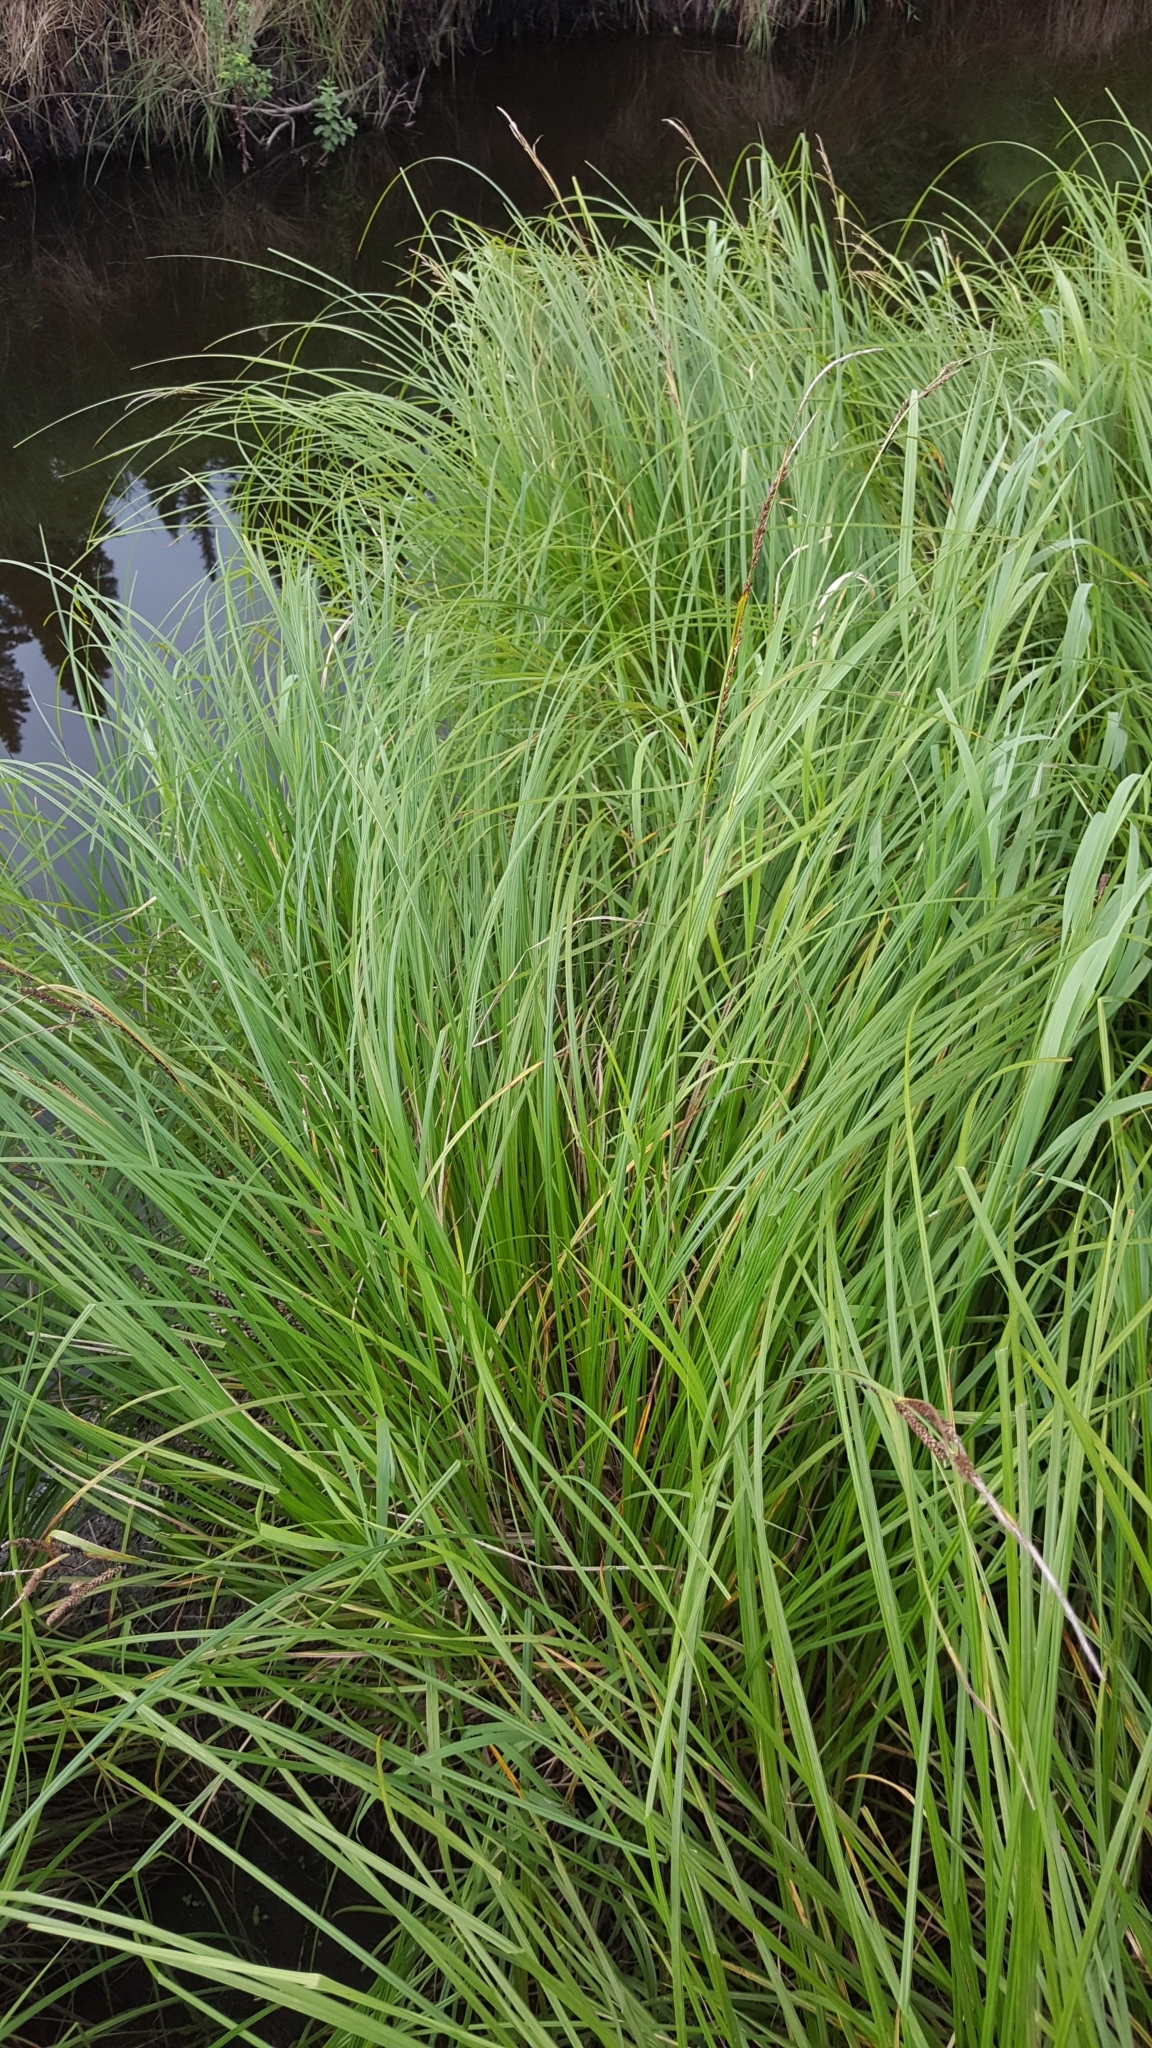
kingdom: Plantae
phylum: Tracheophyta
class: Liliopsida
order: Poales
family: Cyperaceae
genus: Carex
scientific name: Carex stricta
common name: Hummock sedge
